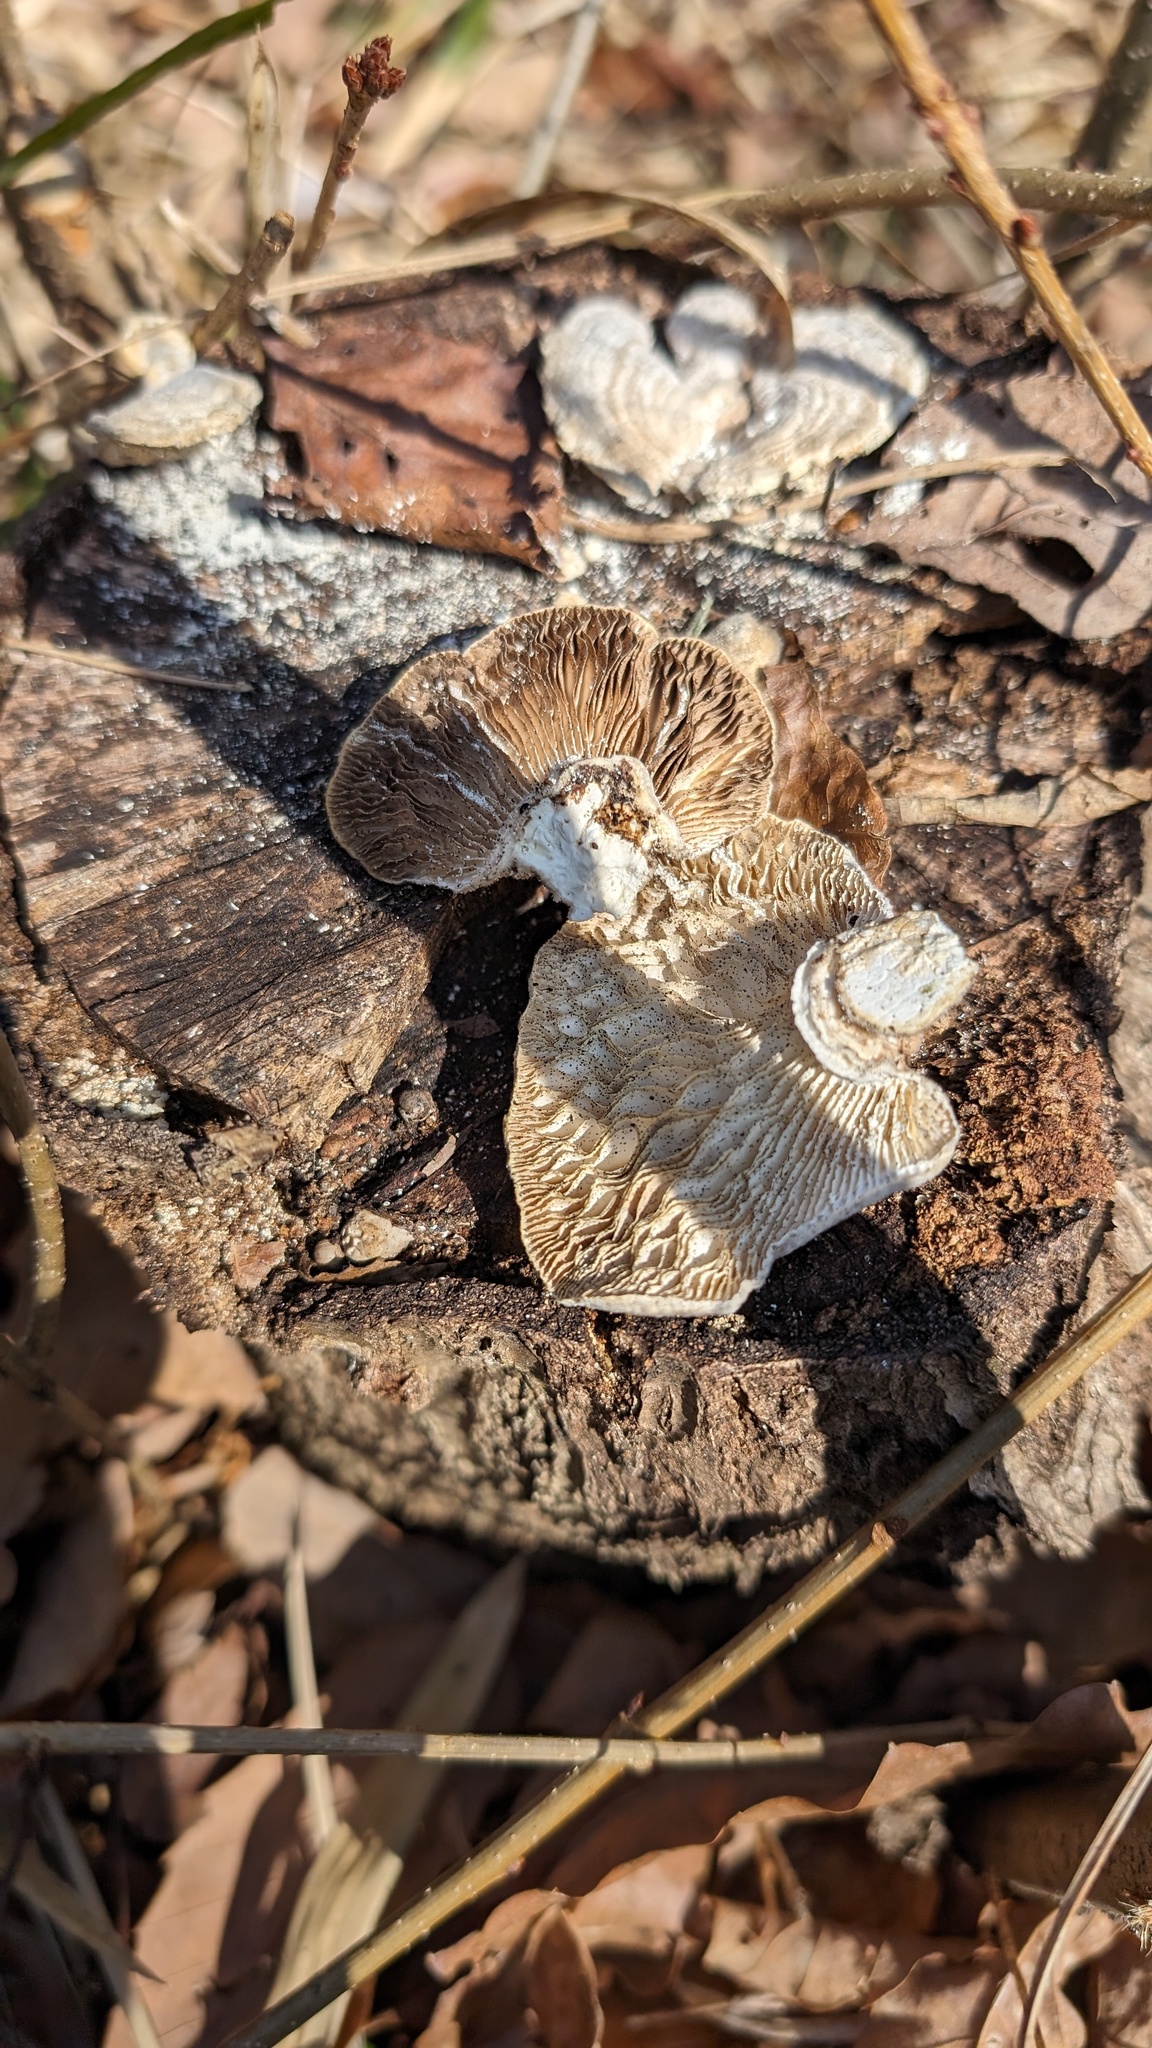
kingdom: Fungi
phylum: Basidiomycota
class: Agaricomycetes
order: Polyporales
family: Polyporaceae
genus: Lenzites
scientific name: Lenzites betulinus
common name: Birch mazegill
